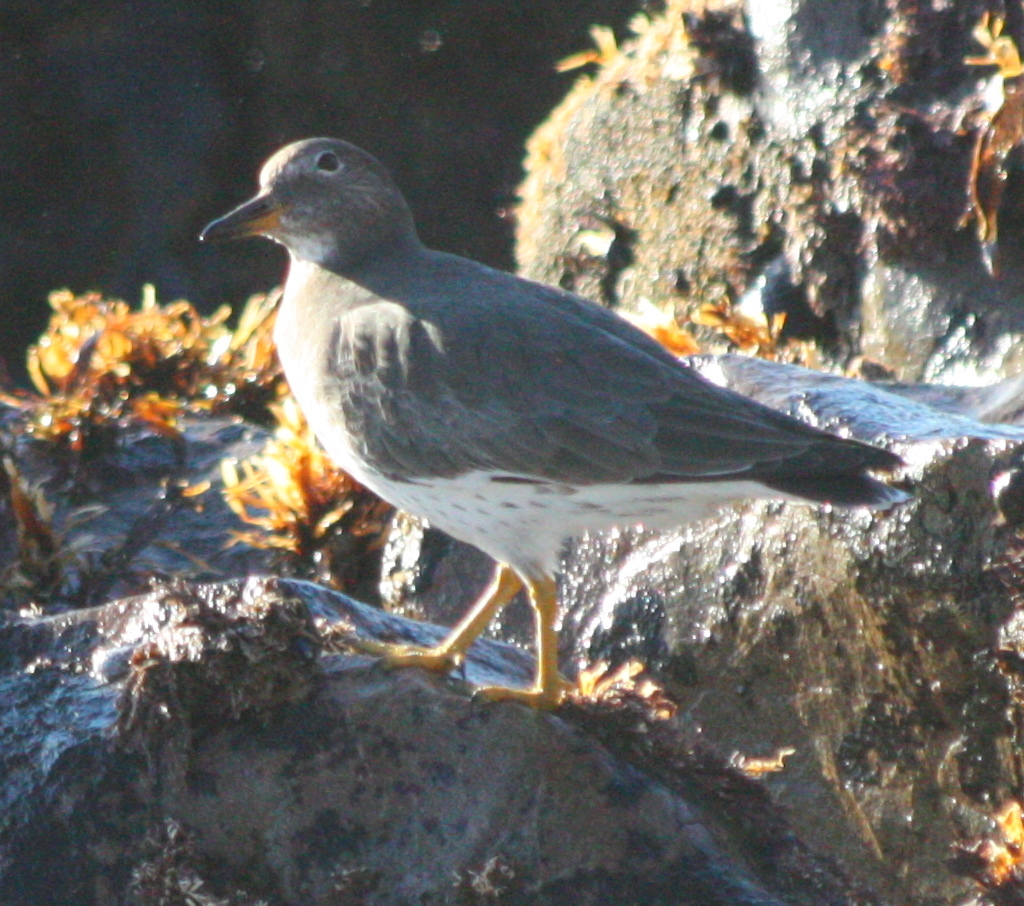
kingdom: Animalia
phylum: Chordata
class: Aves
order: Charadriiformes
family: Scolopacidae
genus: Calidris
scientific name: Calidris virgata
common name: Surfbird
